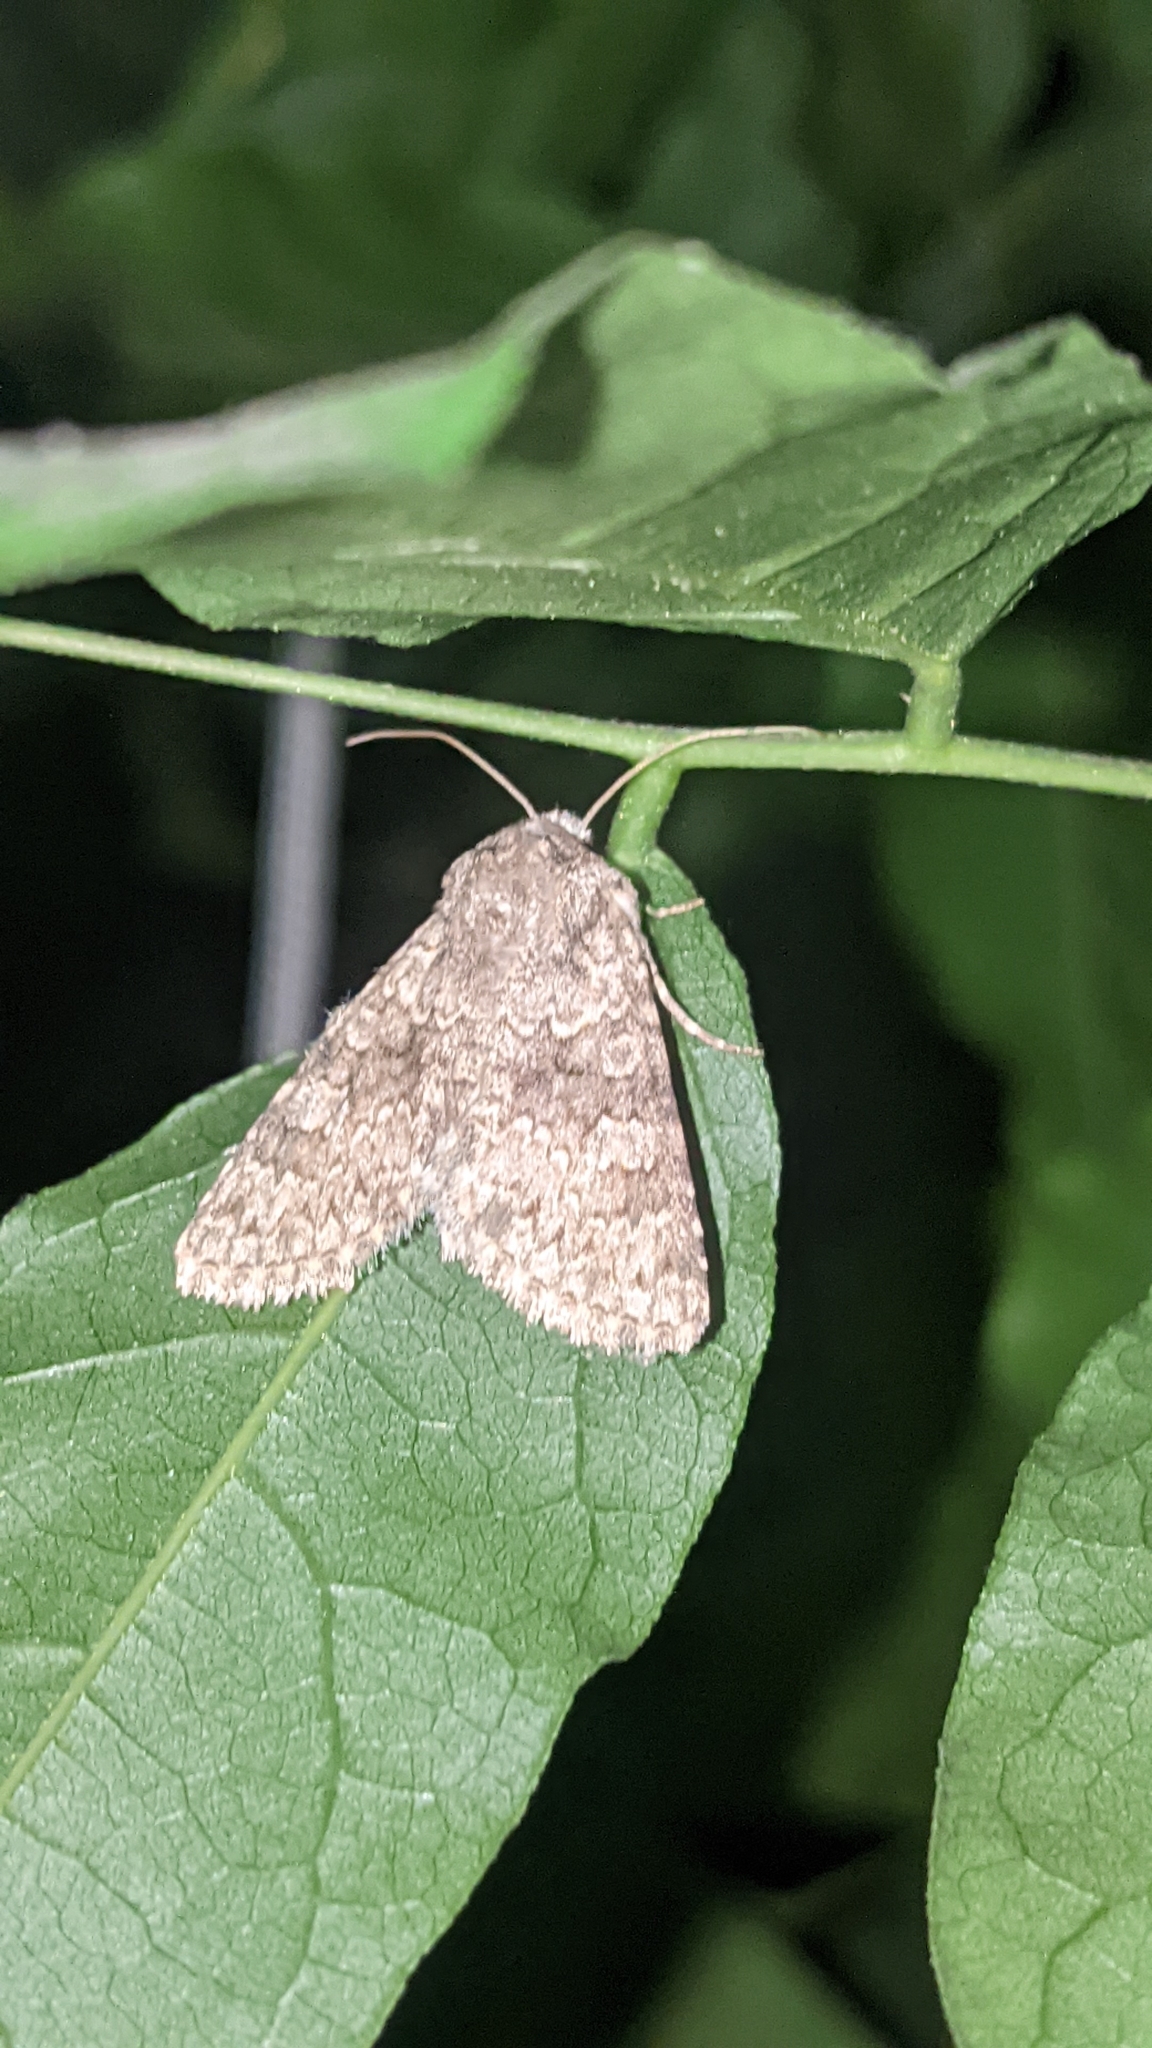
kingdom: Animalia
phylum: Arthropoda
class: Insecta
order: Lepidoptera
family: Noctuidae
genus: Hecatera
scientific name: Hecatera dysodea
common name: Small ranunculus
